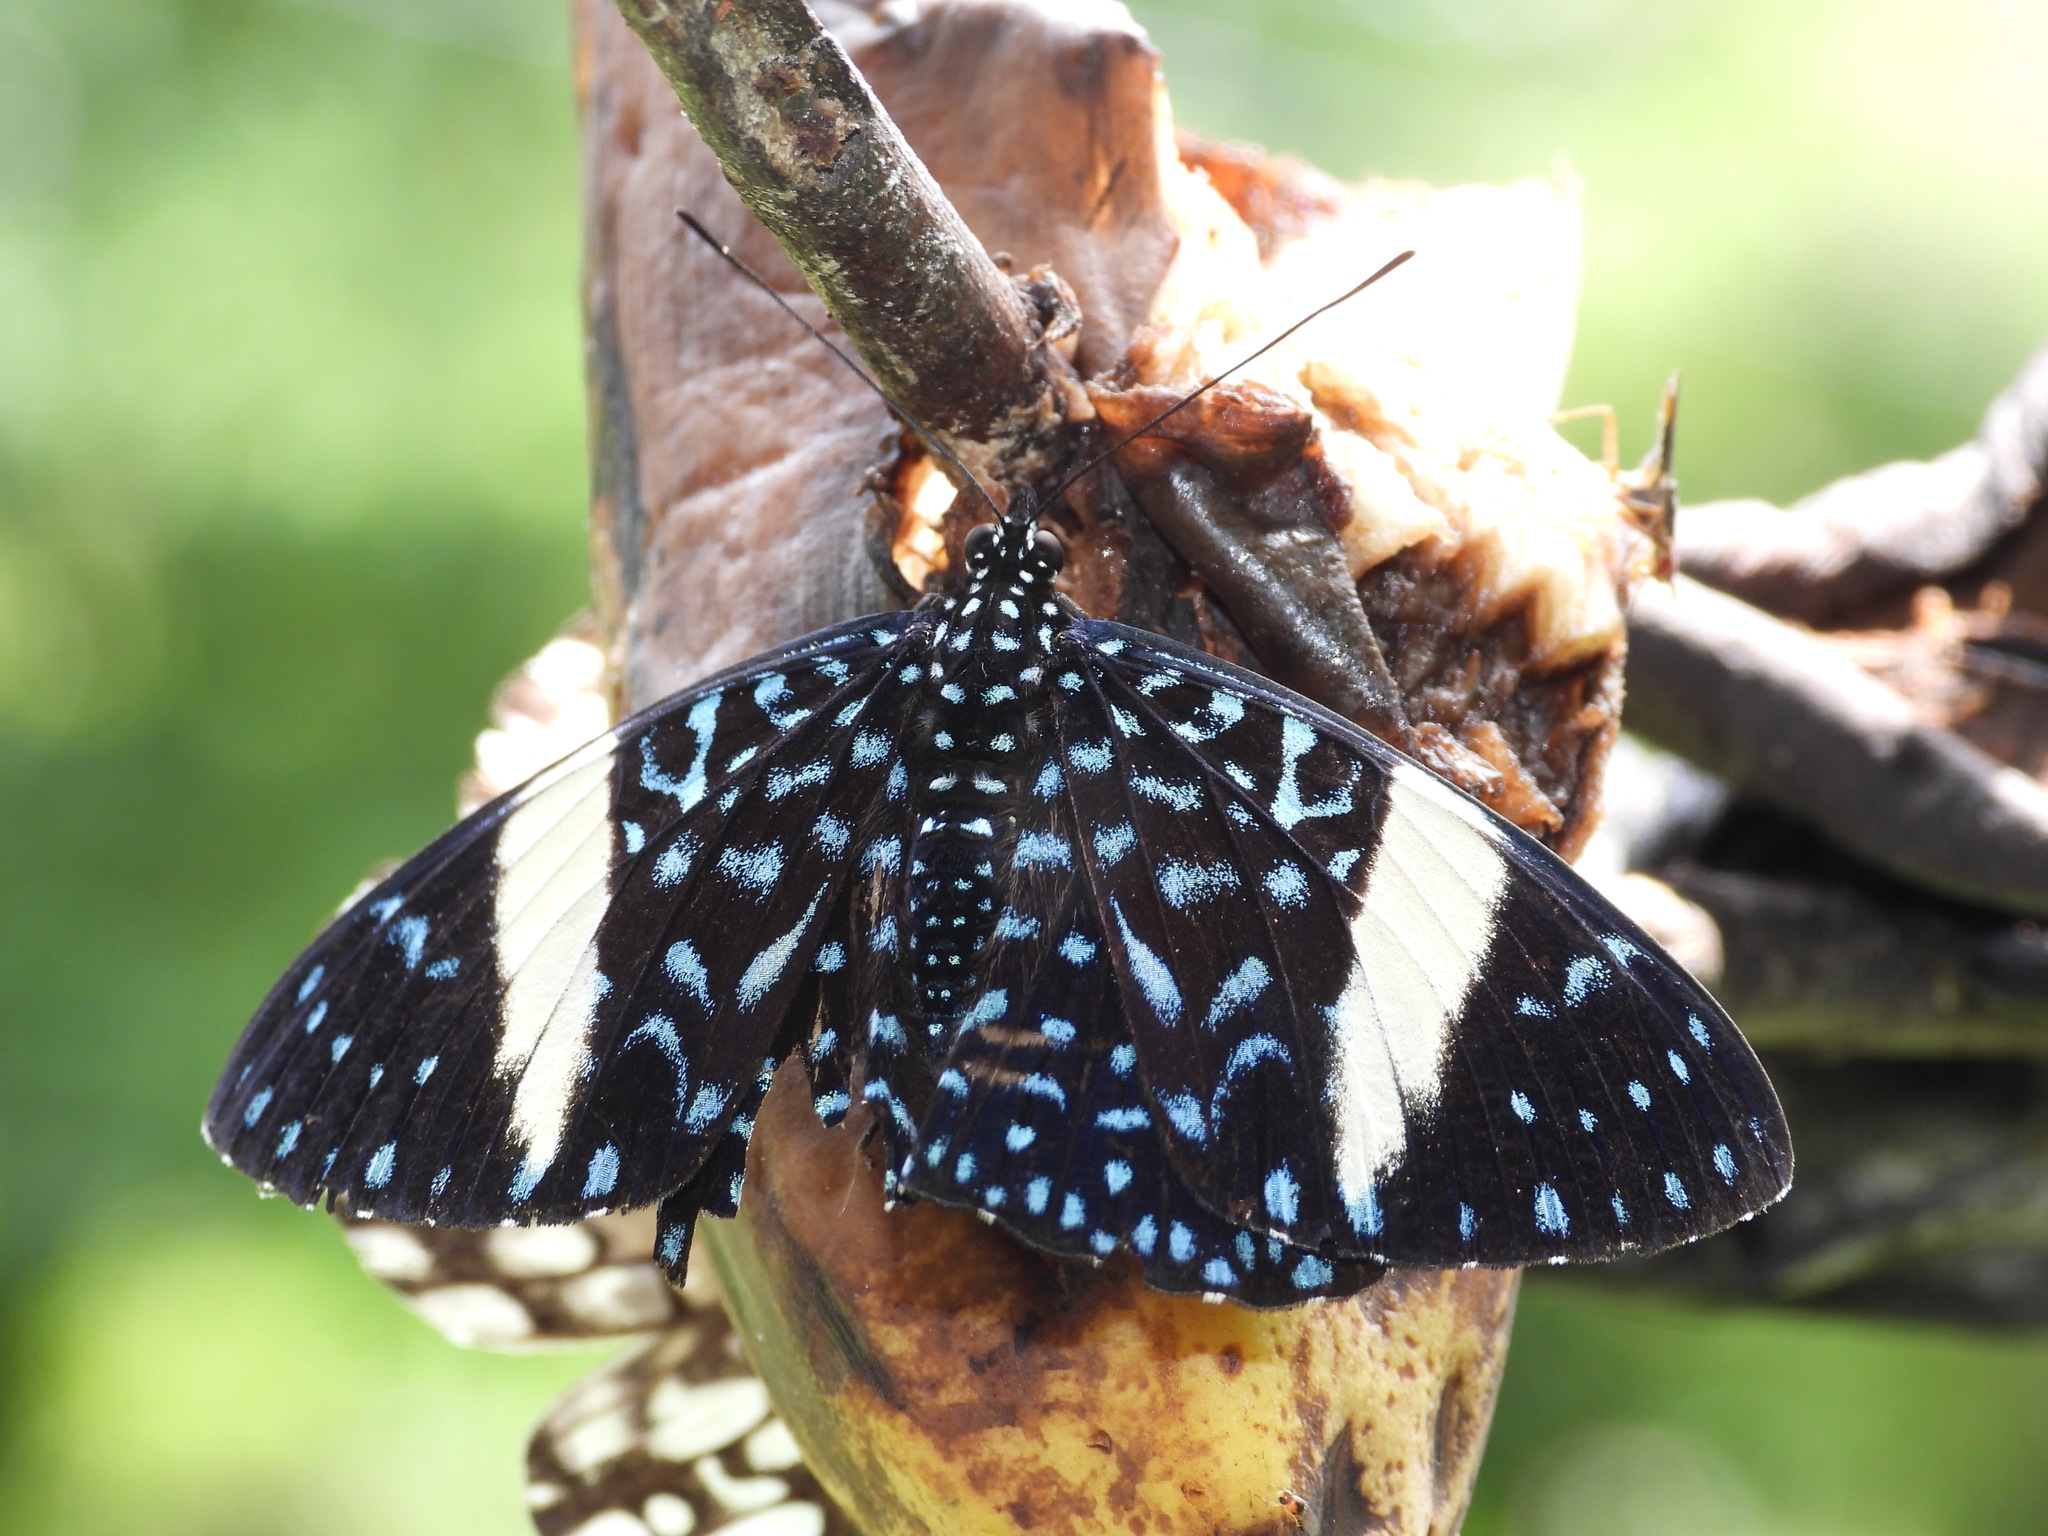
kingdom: Animalia
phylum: Arthropoda
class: Insecta
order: Lepidoptera
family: Nymphalidae
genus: Hamadryas
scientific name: Hamadryas laodamia
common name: Starry night cracker
